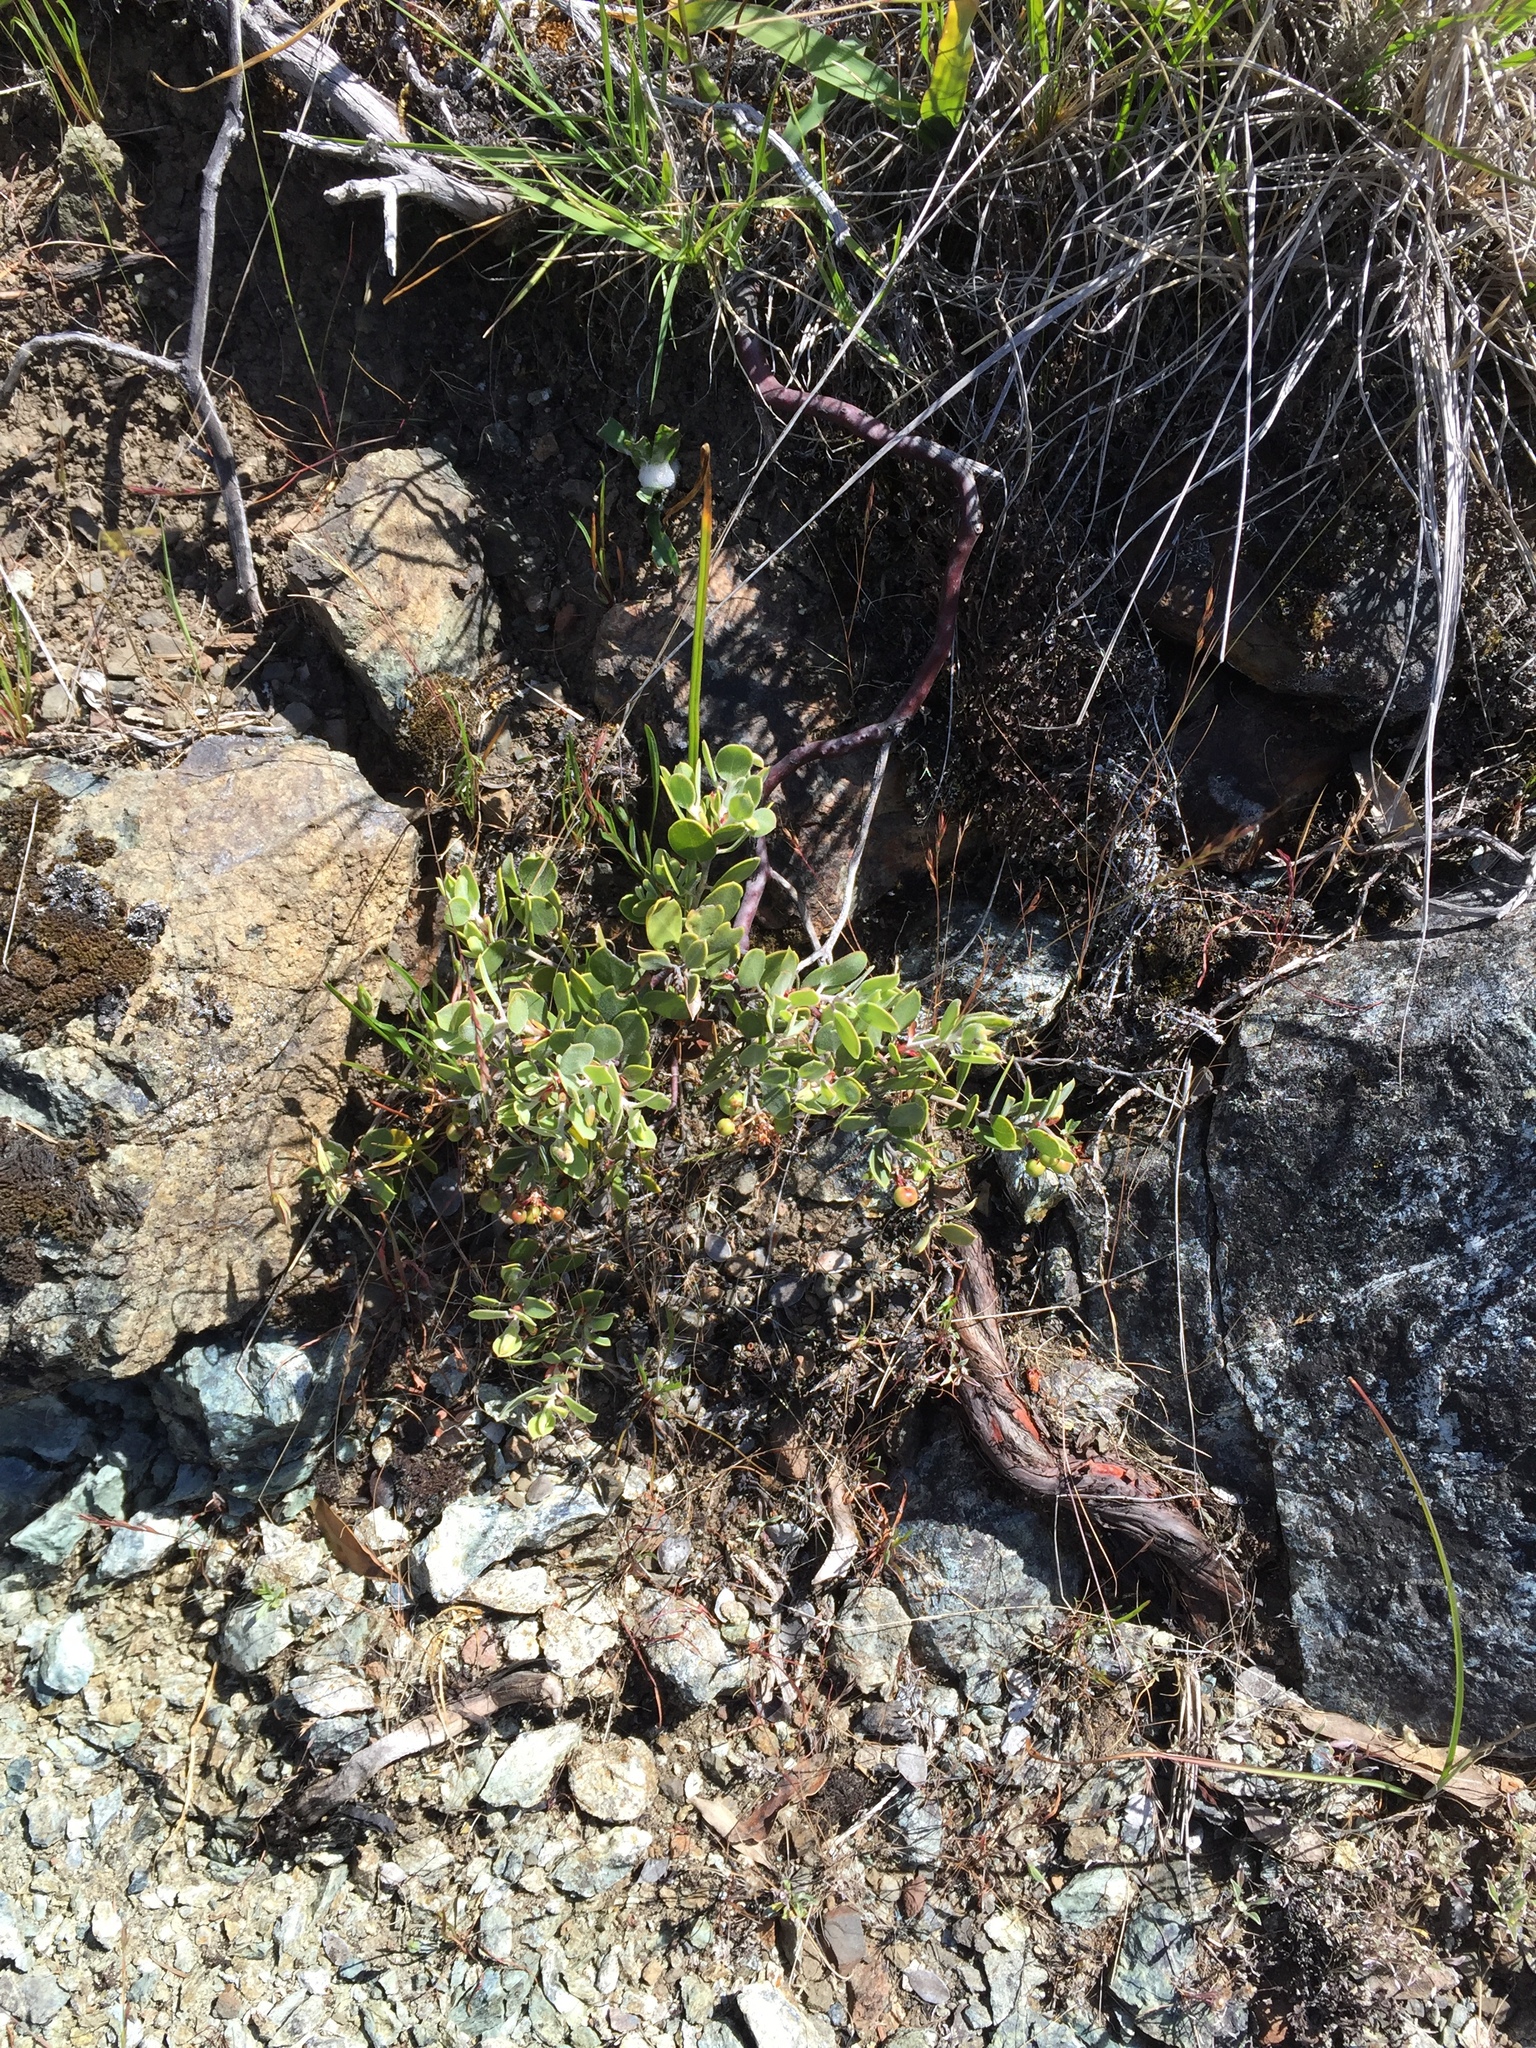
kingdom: Plantae
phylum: Tracheophyta
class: Magnoliopsida
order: Ericales
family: Ericaceae
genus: Arctostaphylos
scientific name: Arctostaphylos montana
